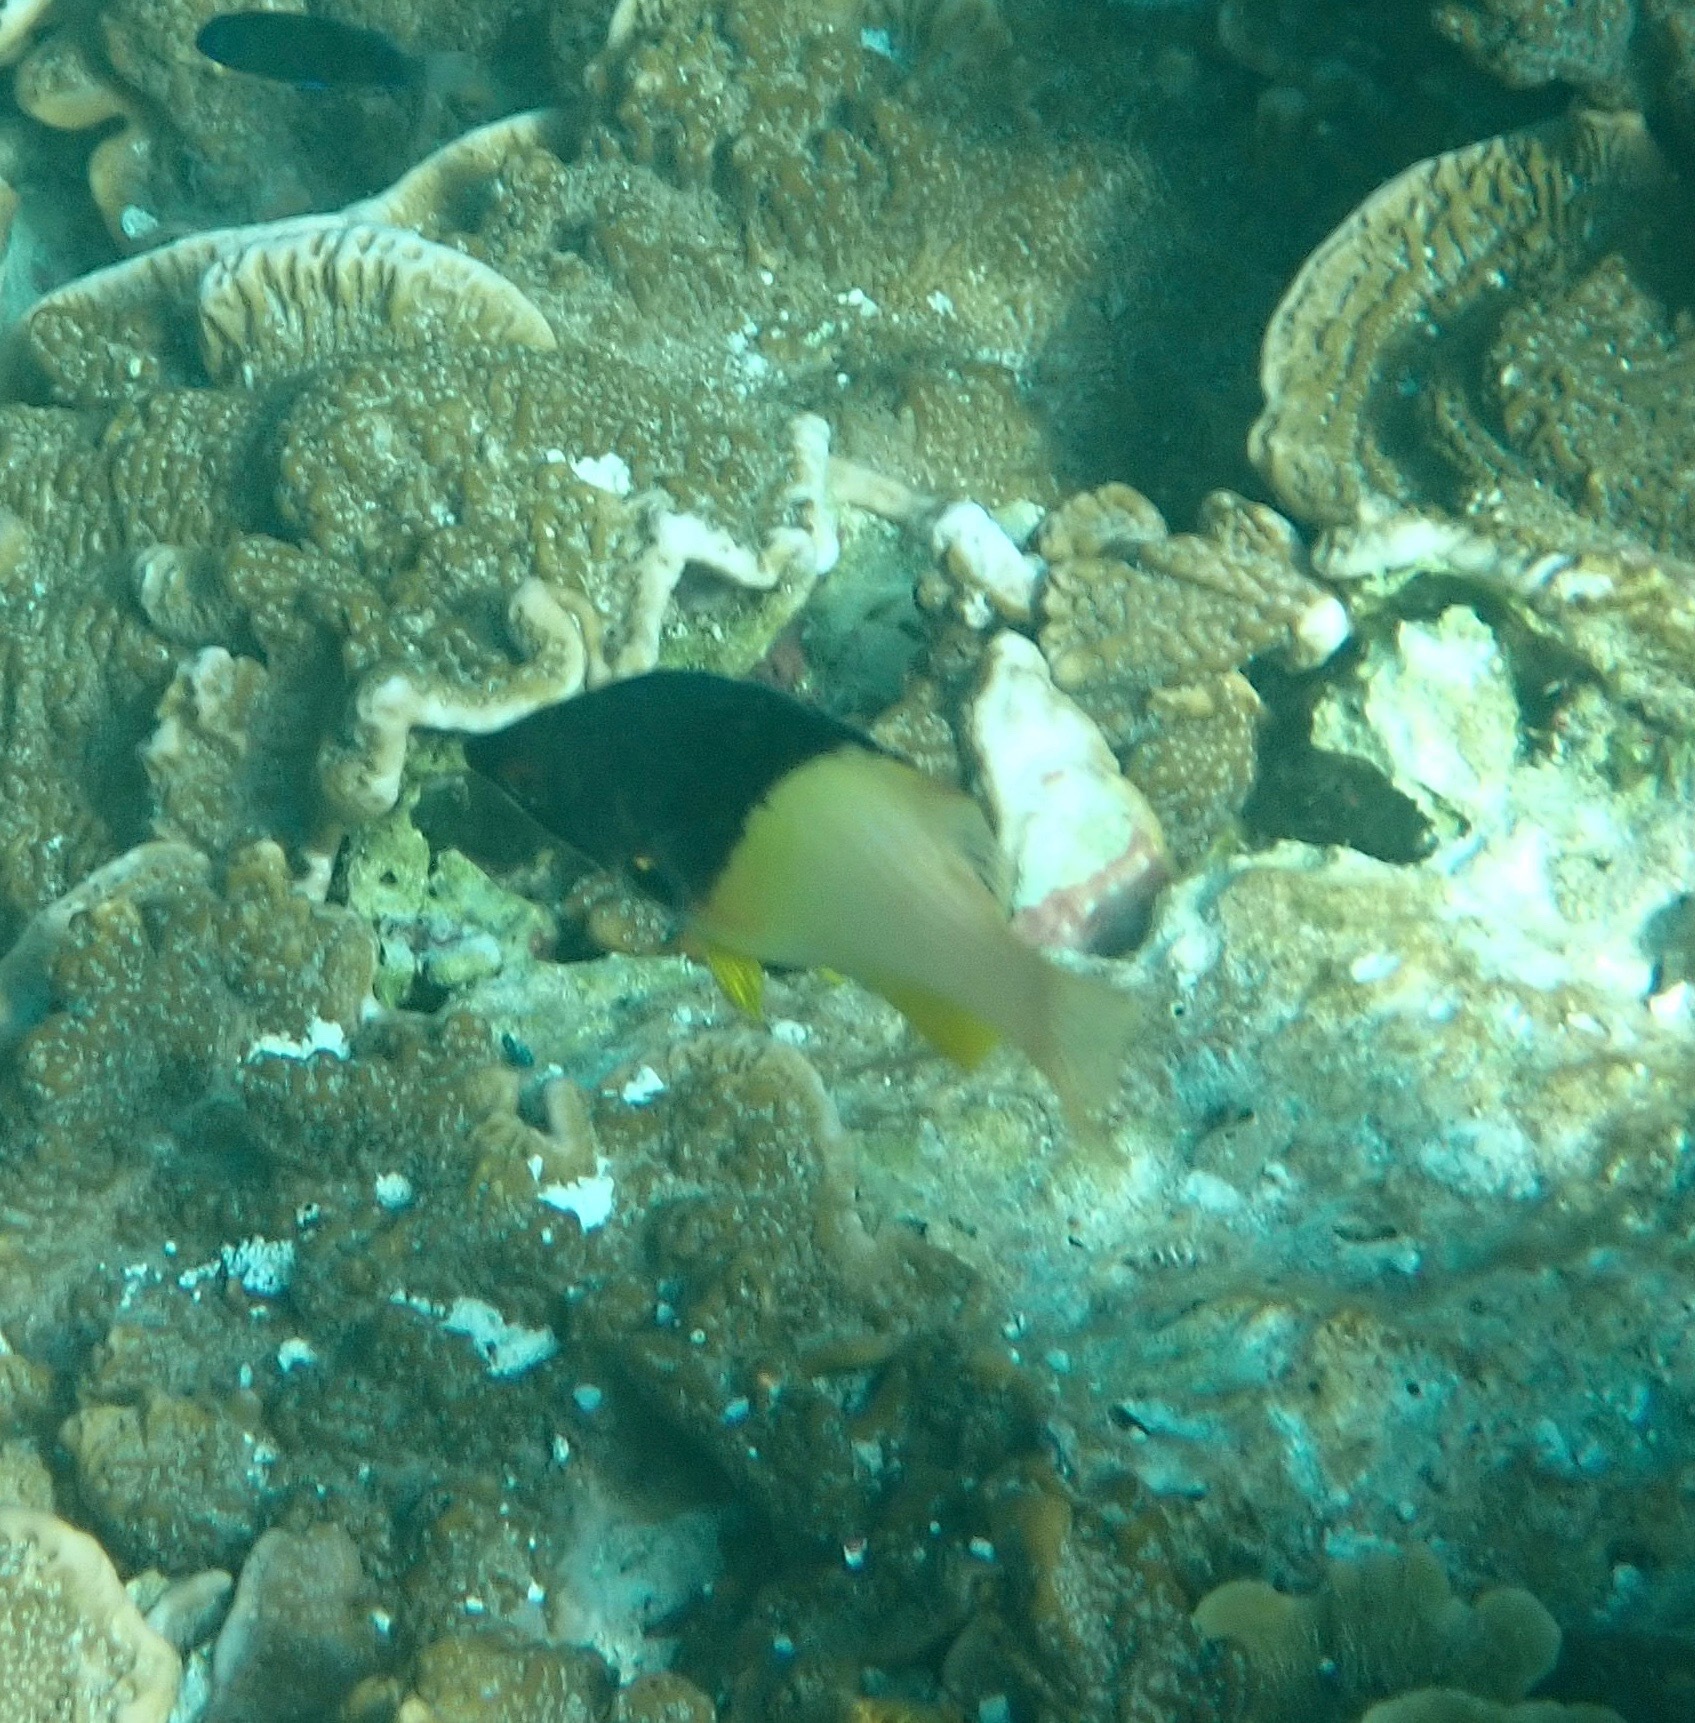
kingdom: Animalia
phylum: Chordata
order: Perciformes
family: Labridae
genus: Bodianus
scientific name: Bodianus mesothorax
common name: Coral hogfish
